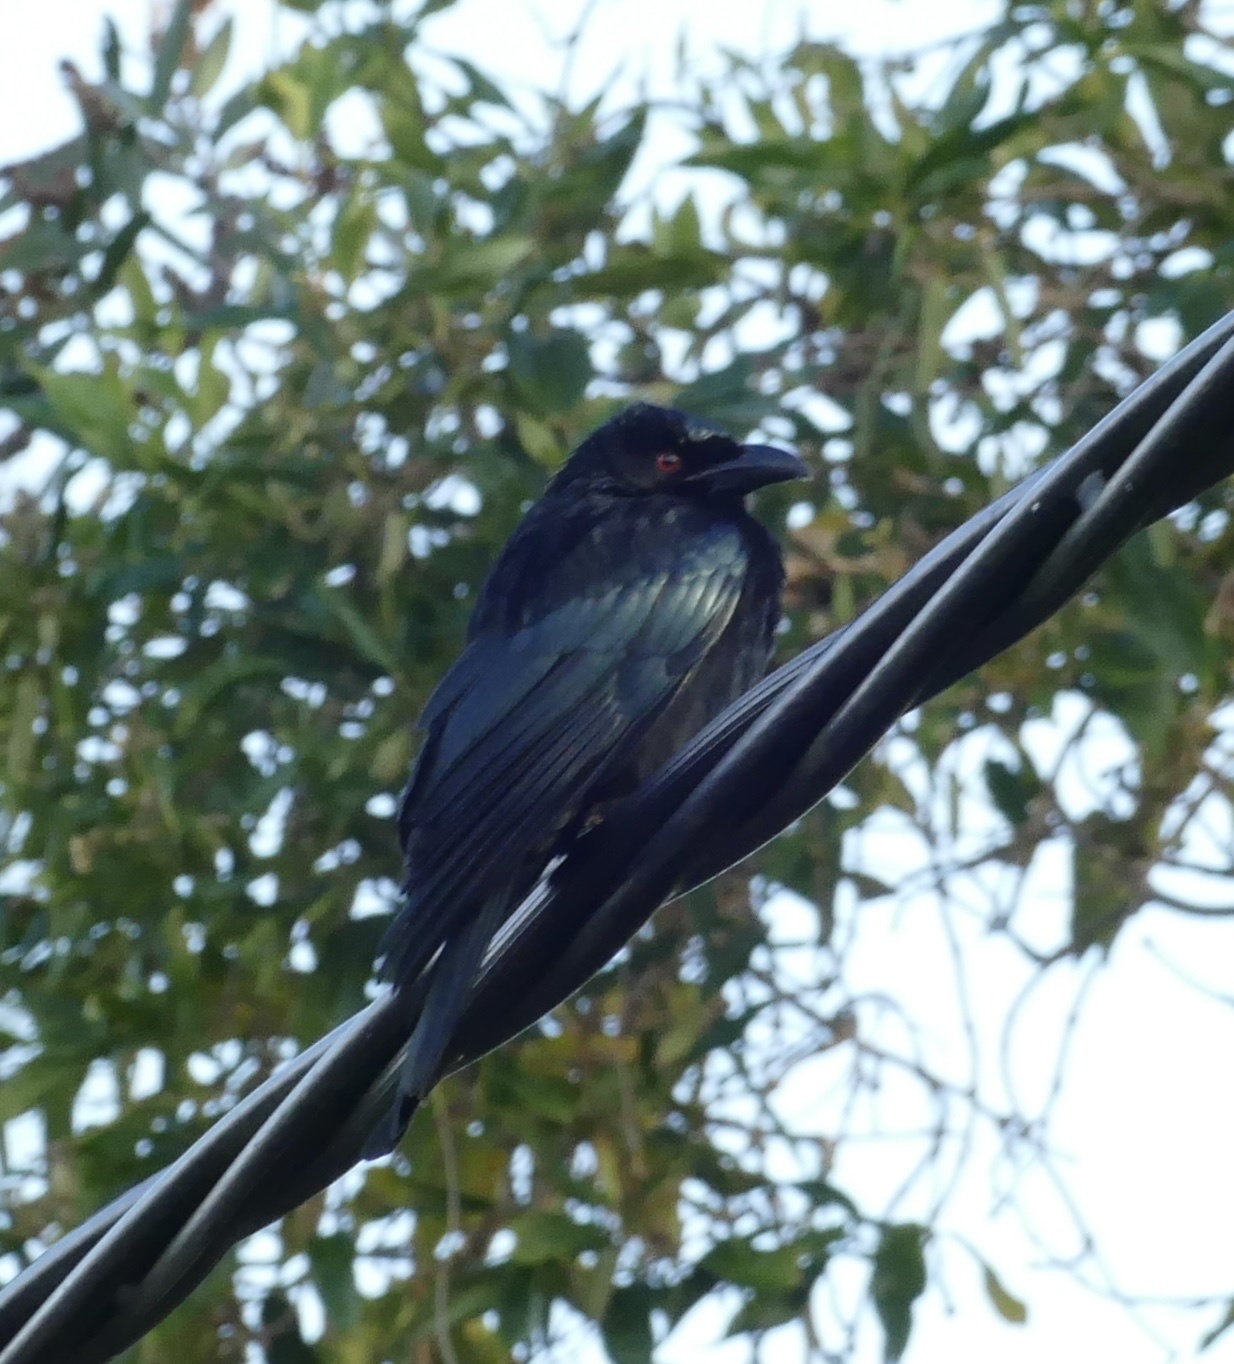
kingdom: Animalia
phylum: Chordata
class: Aves
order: Passeriformes
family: Dicruridae
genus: Dicrurus
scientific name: Dicrurus bracteatus
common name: Spangled drongo
